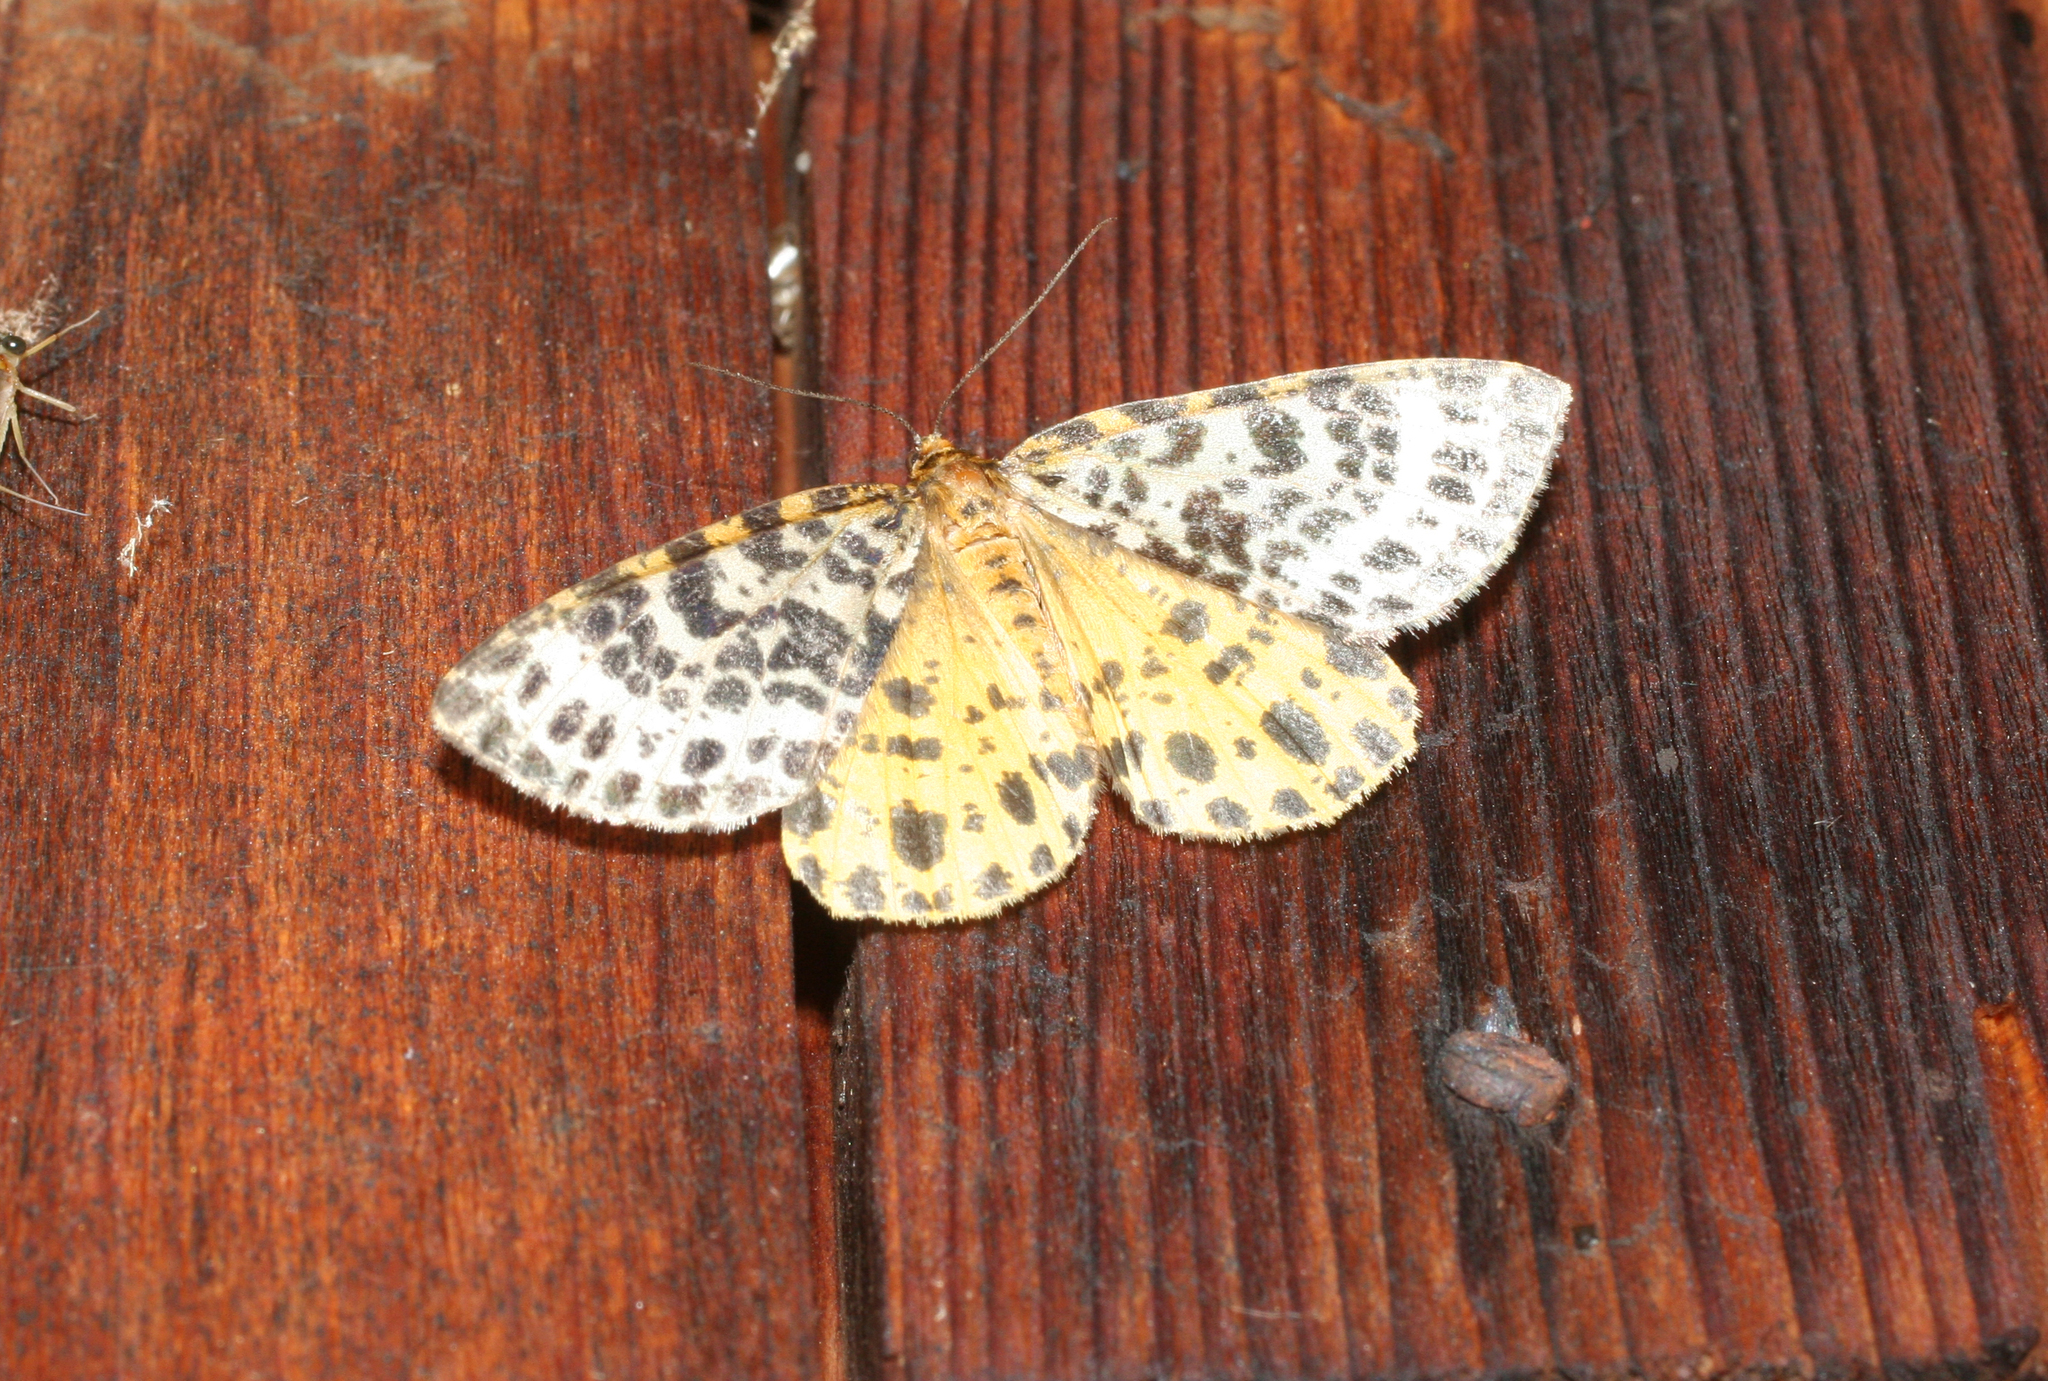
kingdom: Animalia
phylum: Arthropoda
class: Insecta
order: Lepidoptera
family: Geometridae
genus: Arichanna
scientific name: Arichanna melanaria
